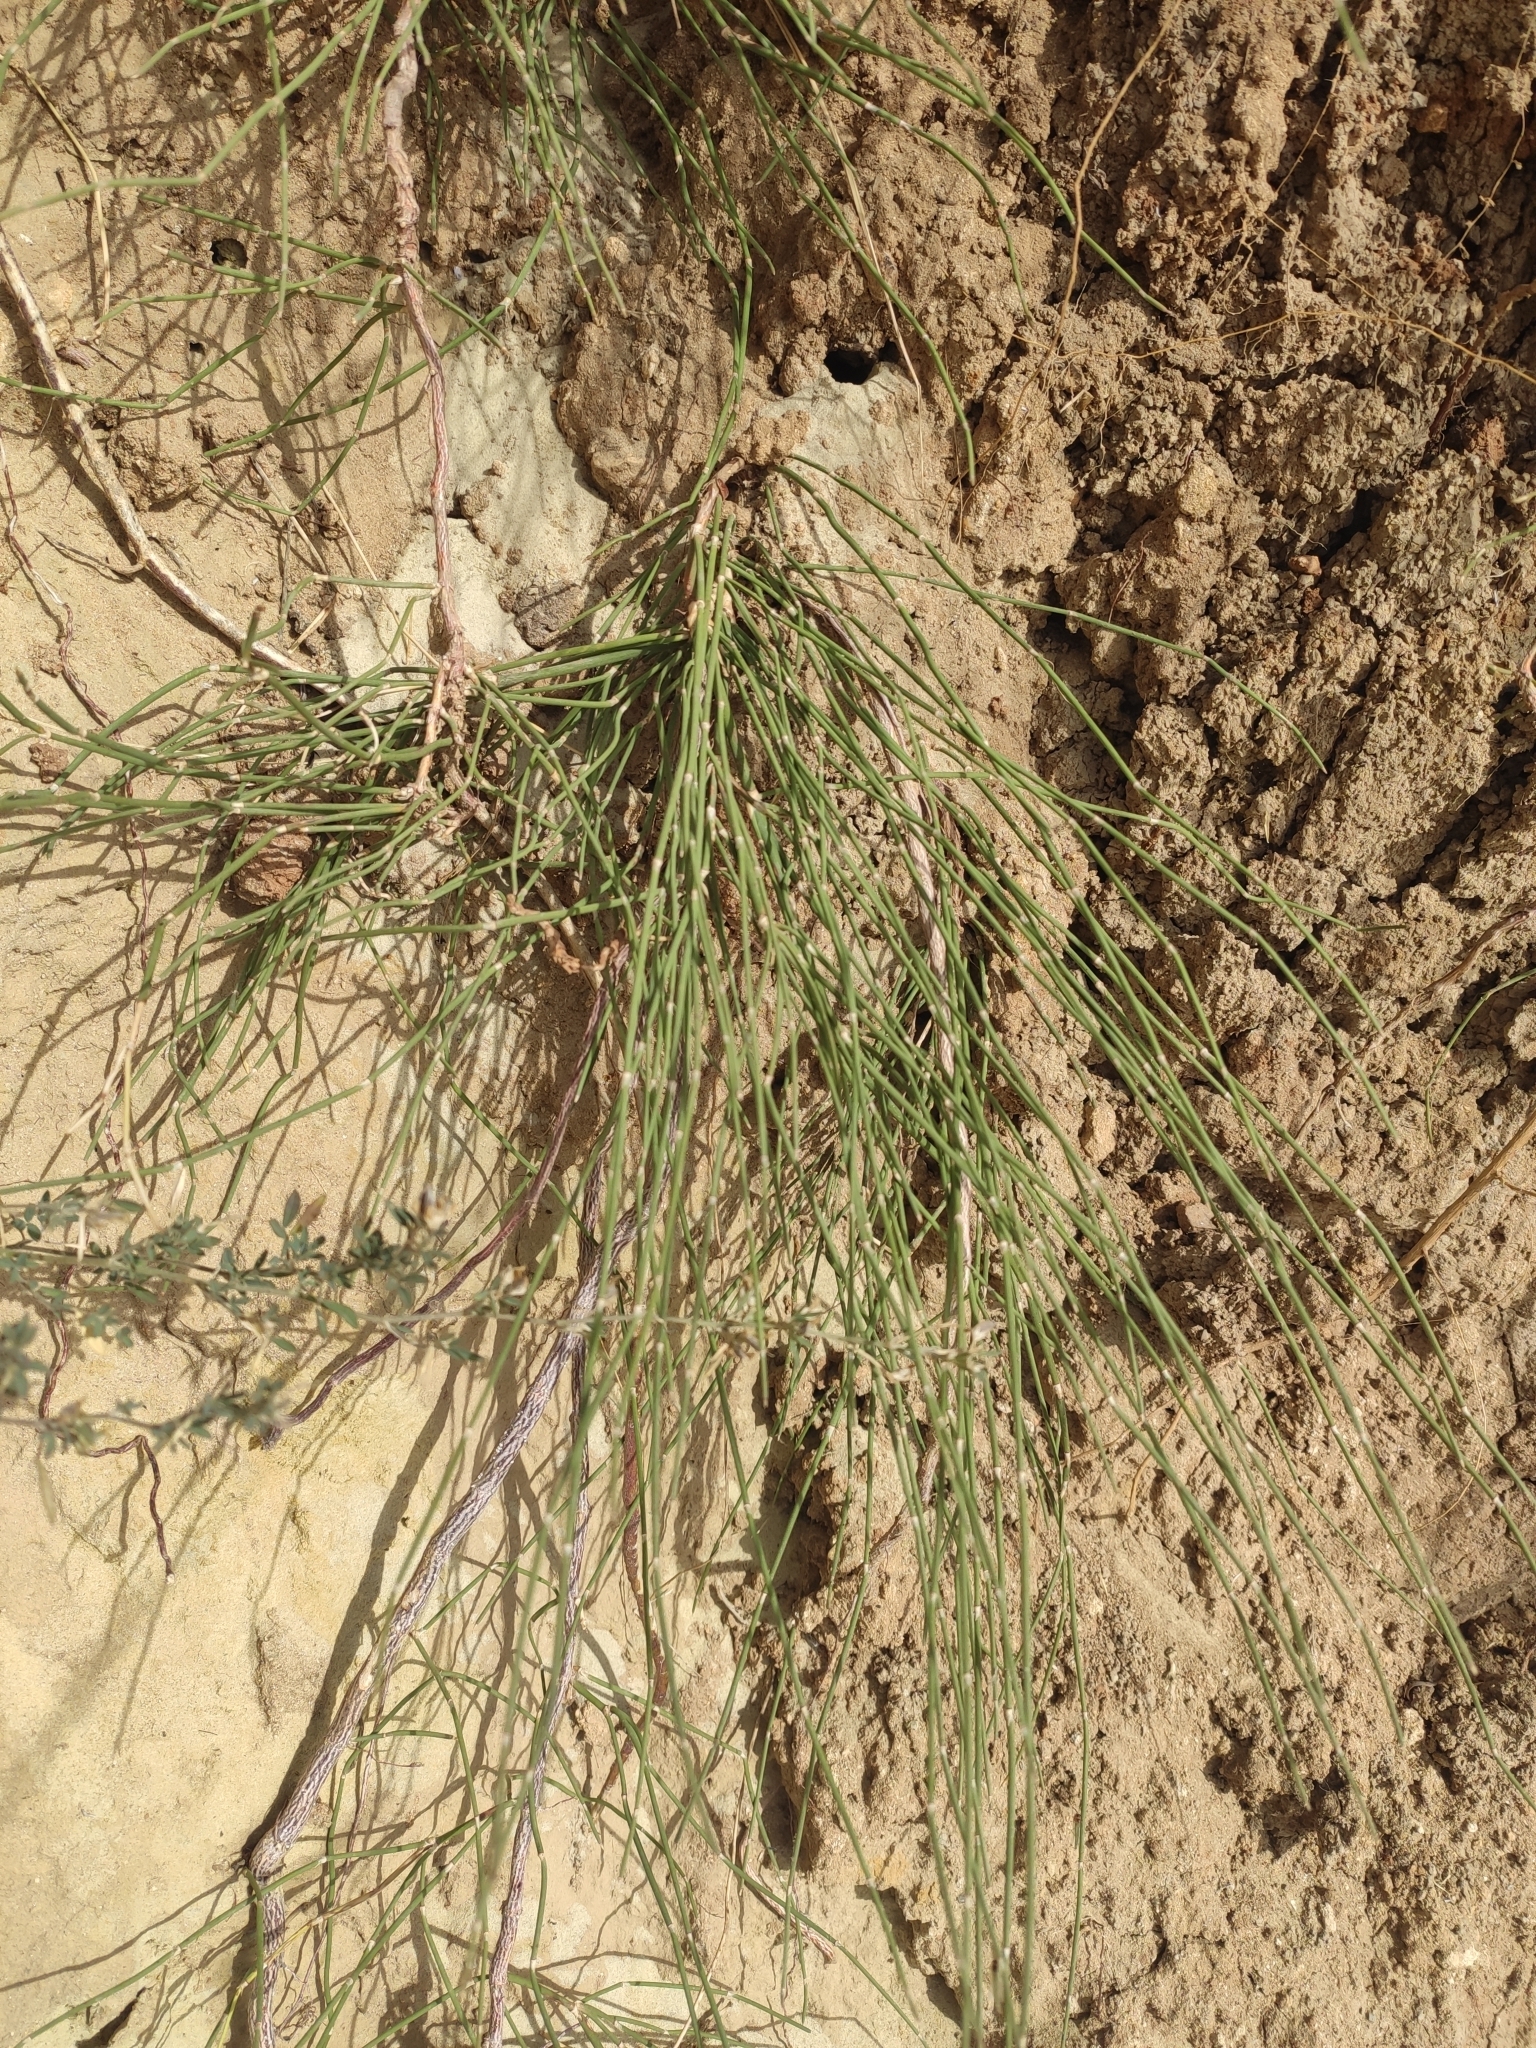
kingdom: Plantae
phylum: Tracheophyta
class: Gnetopsida
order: Ephedrales
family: Ephedraceae
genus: Ephedra
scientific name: Ephedra distachya
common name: Sea grape
